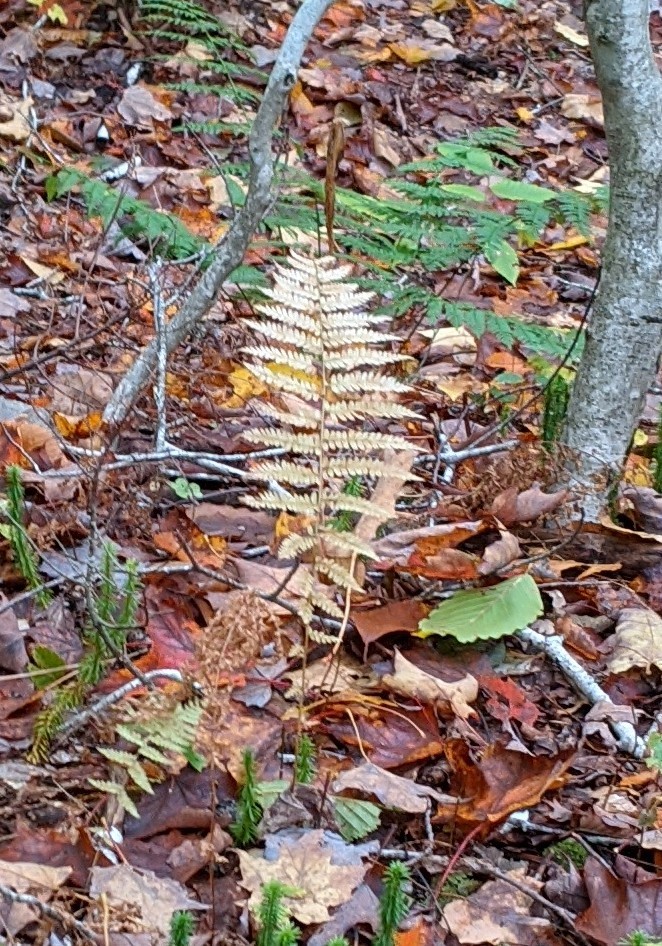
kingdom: Plantae
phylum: Tracheophyta
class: Polypodiopsida
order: Polypodiales
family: Thelypteridaceae
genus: Amauropelta
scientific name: Amauropelta noveboracensis
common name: New york fern
